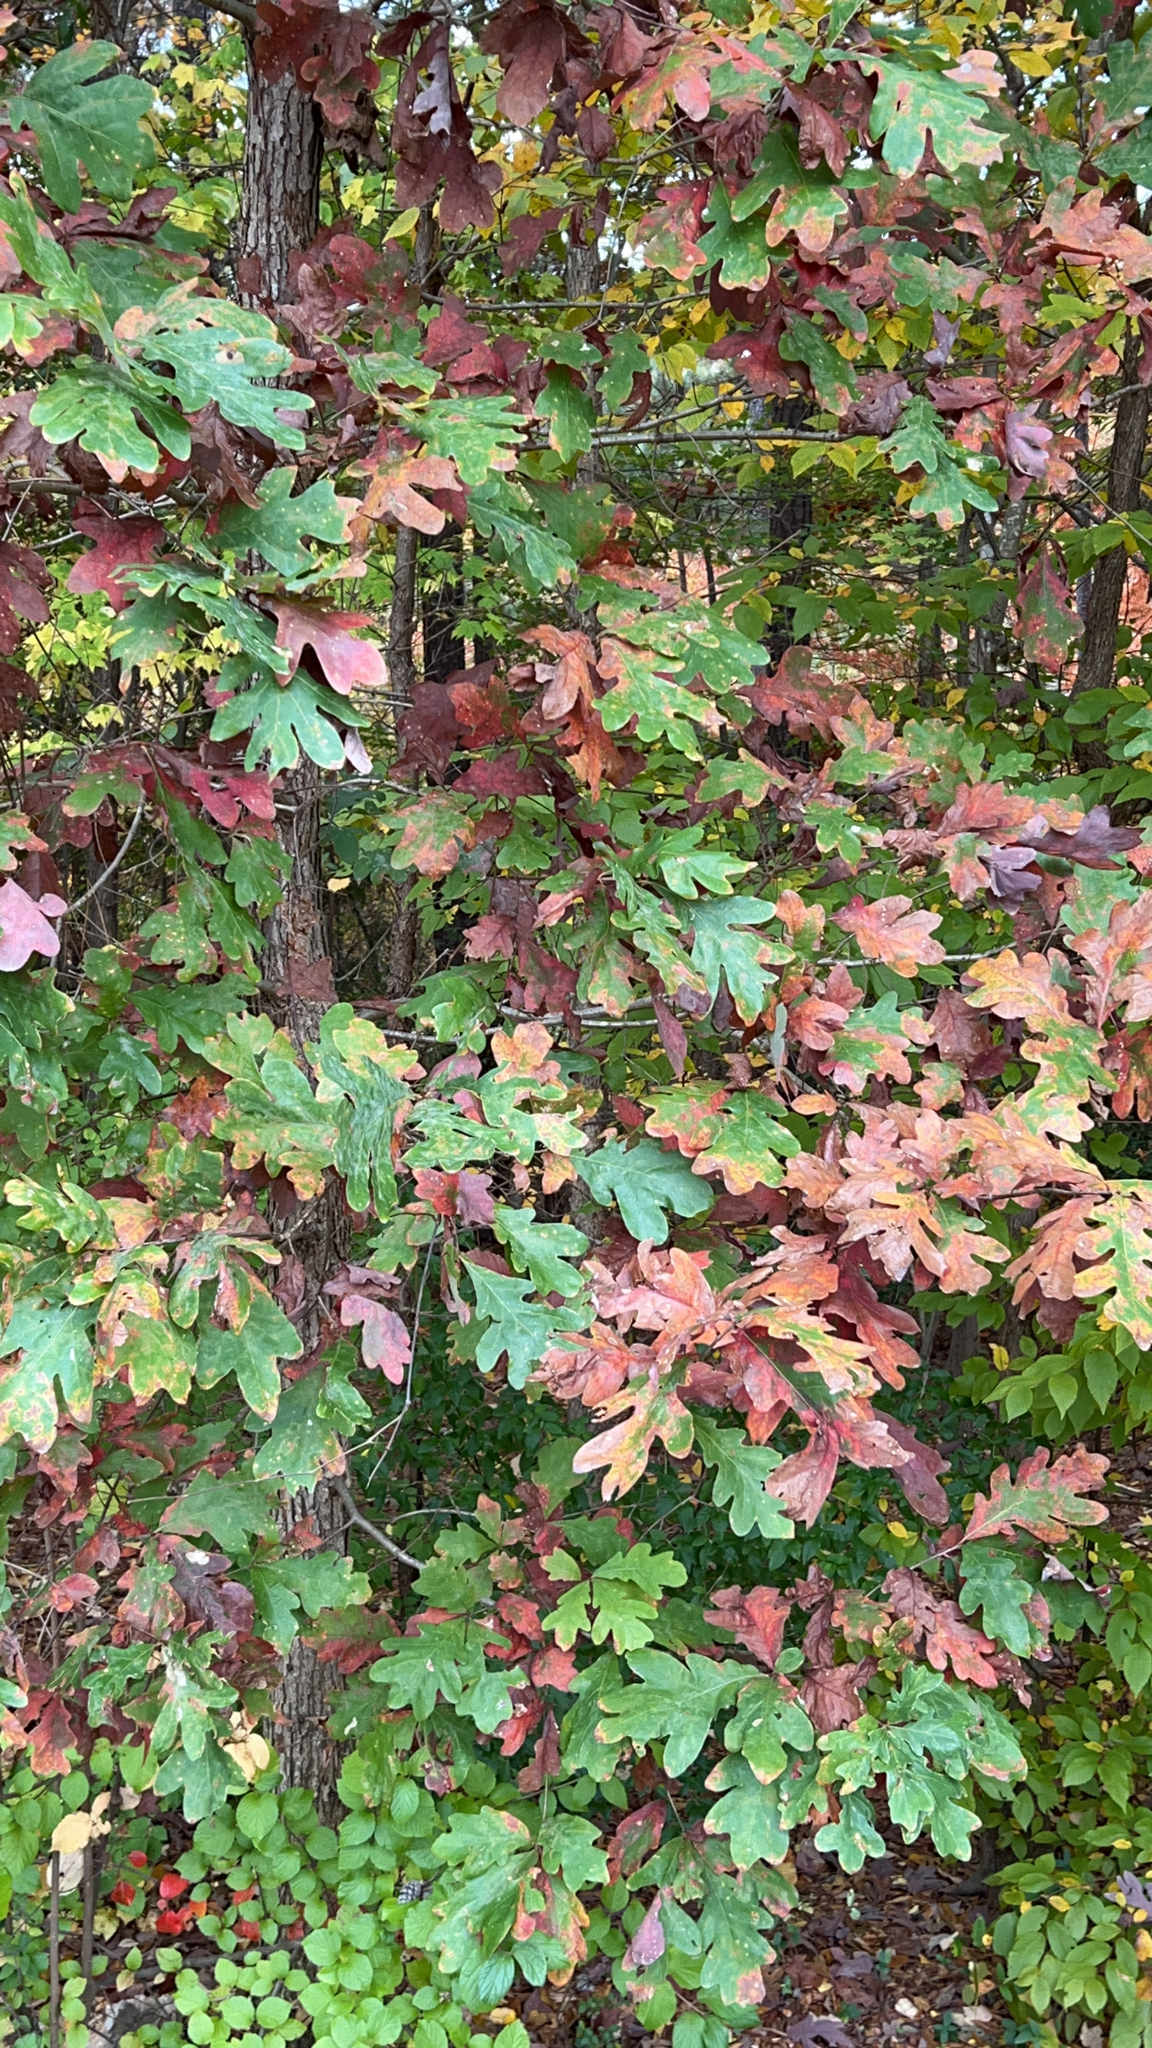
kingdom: Plantae
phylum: Tracheophyta
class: Magnoliopsida
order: Fagales
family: Fagaceae
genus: Quercus
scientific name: Quercus alba
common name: White oak
